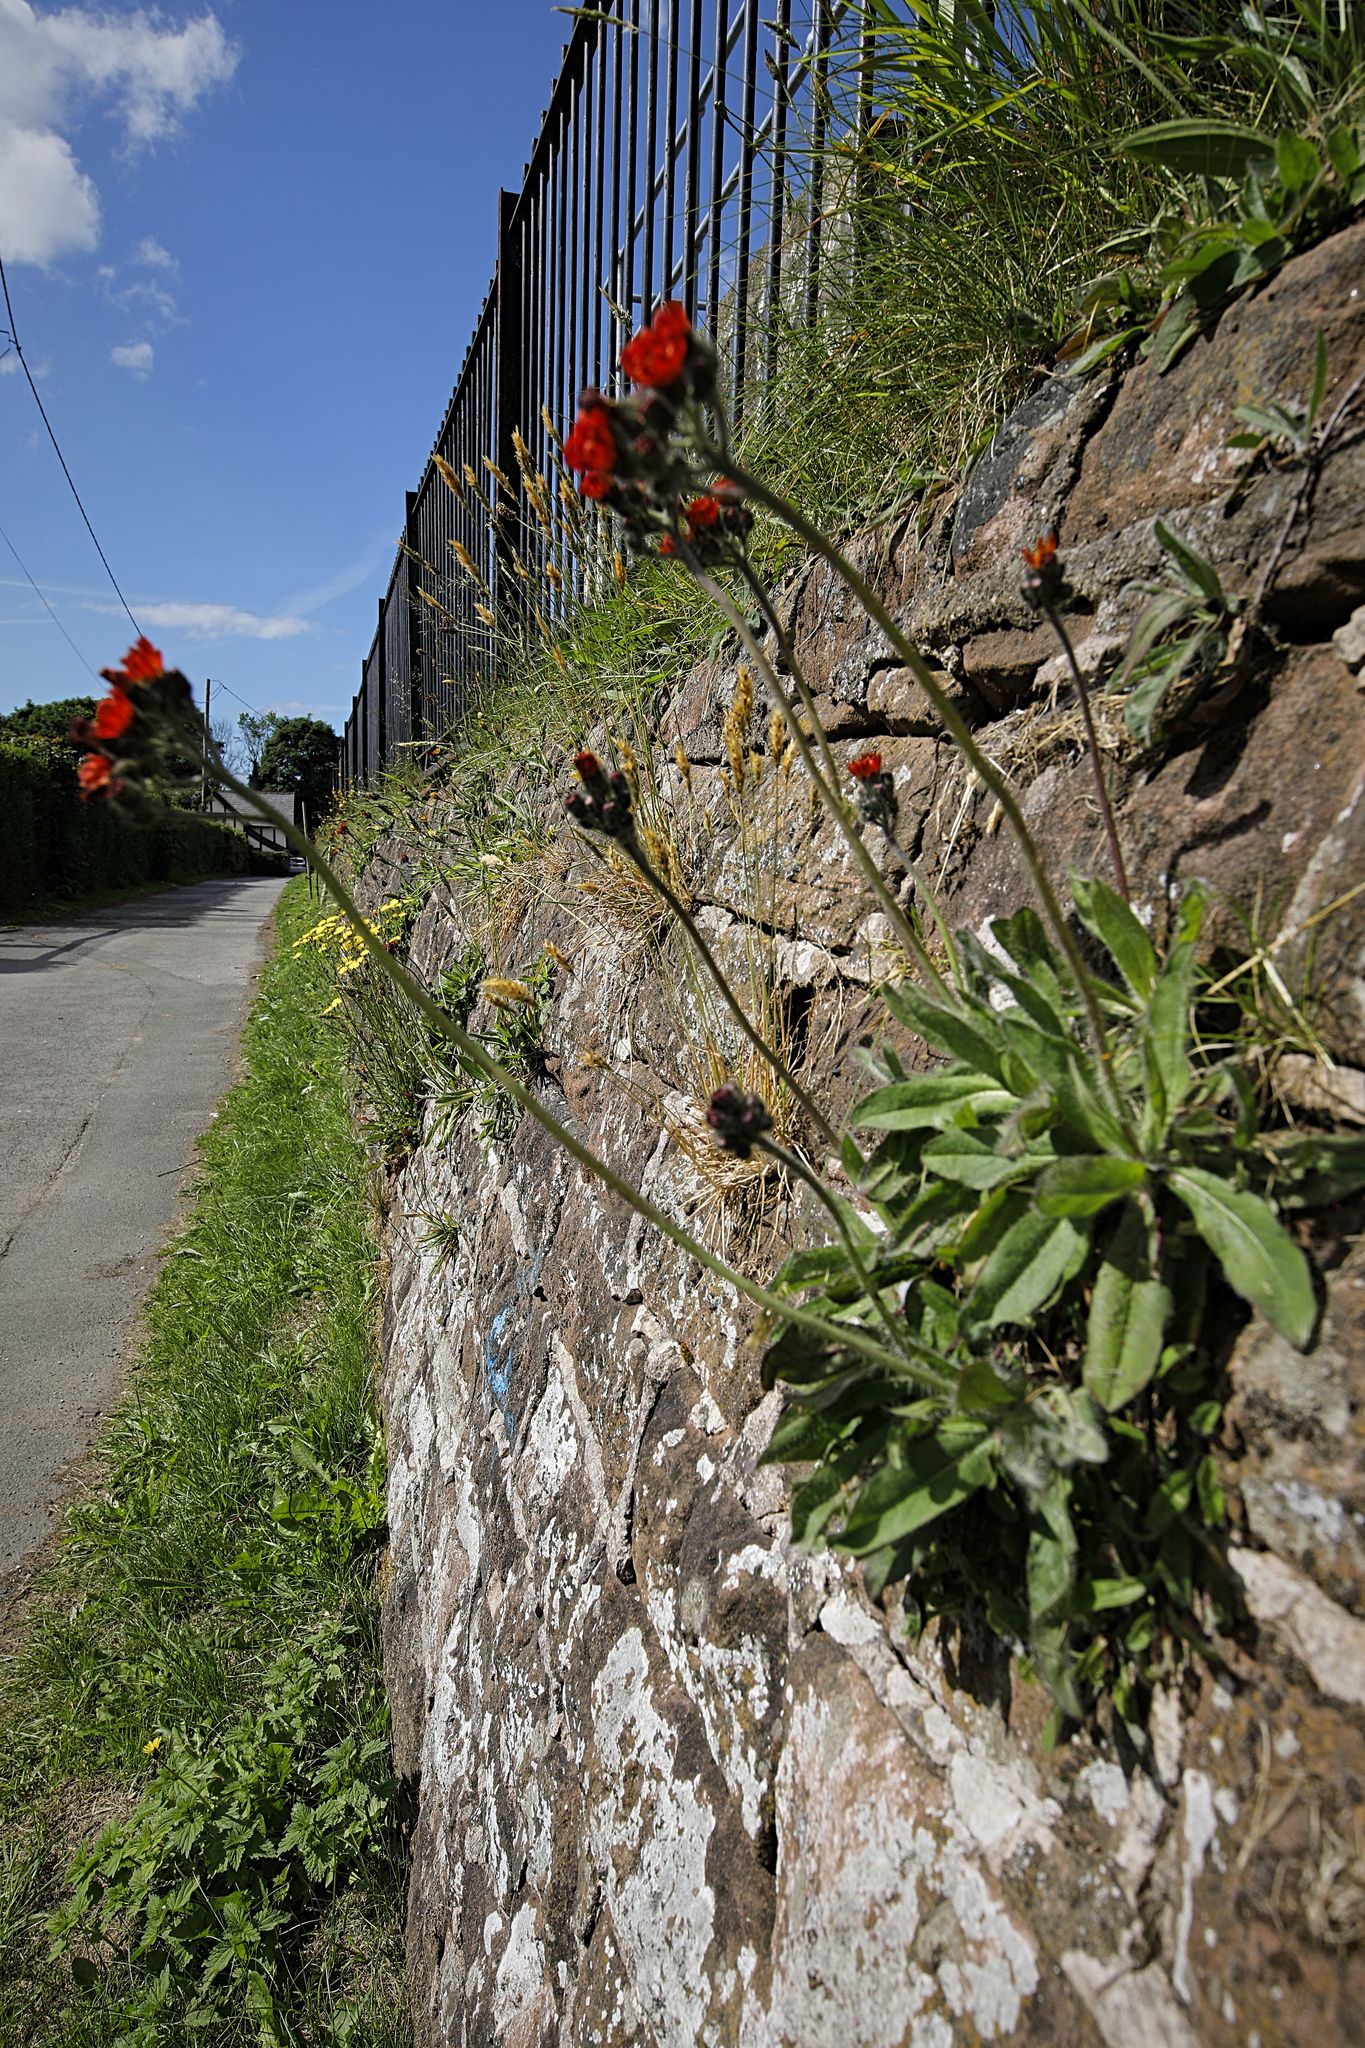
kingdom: Plantae
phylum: Tracheophyta
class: Magnoliopsida
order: Asterales
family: Asteraceae
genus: Pilosella
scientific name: Pilosella aurantiaca
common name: Fox-and-cubs
